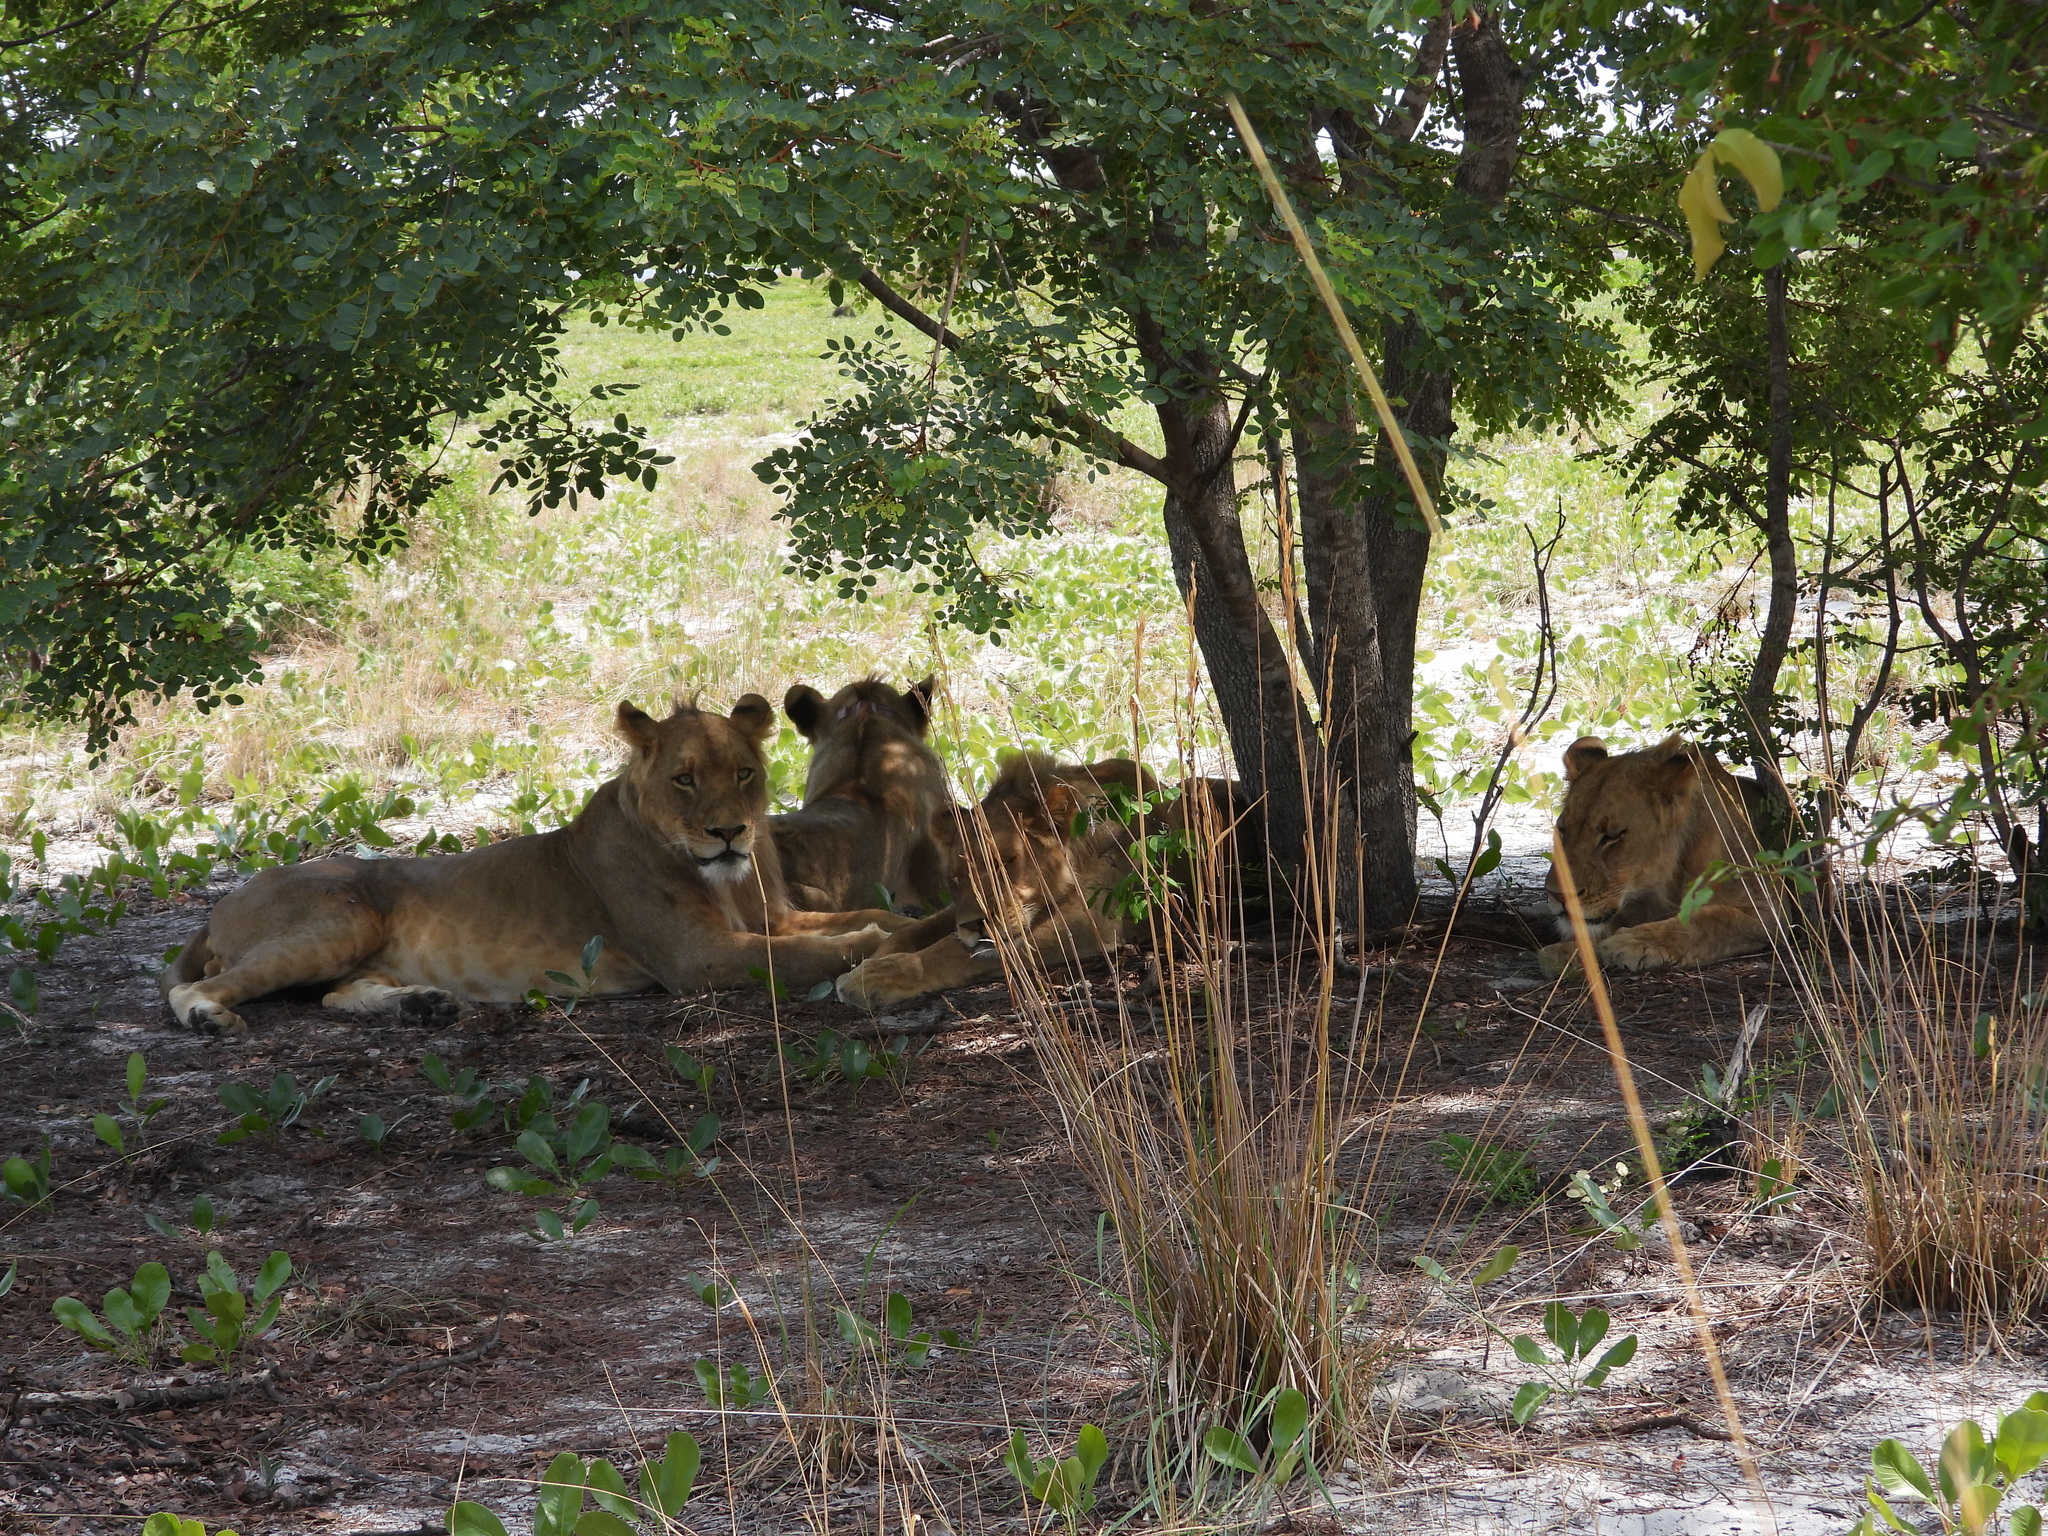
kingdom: Animalia
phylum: Chordata
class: Mammalia
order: Carnivora
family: Felidae
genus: Panthera
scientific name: Panthera leo
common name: Lion
